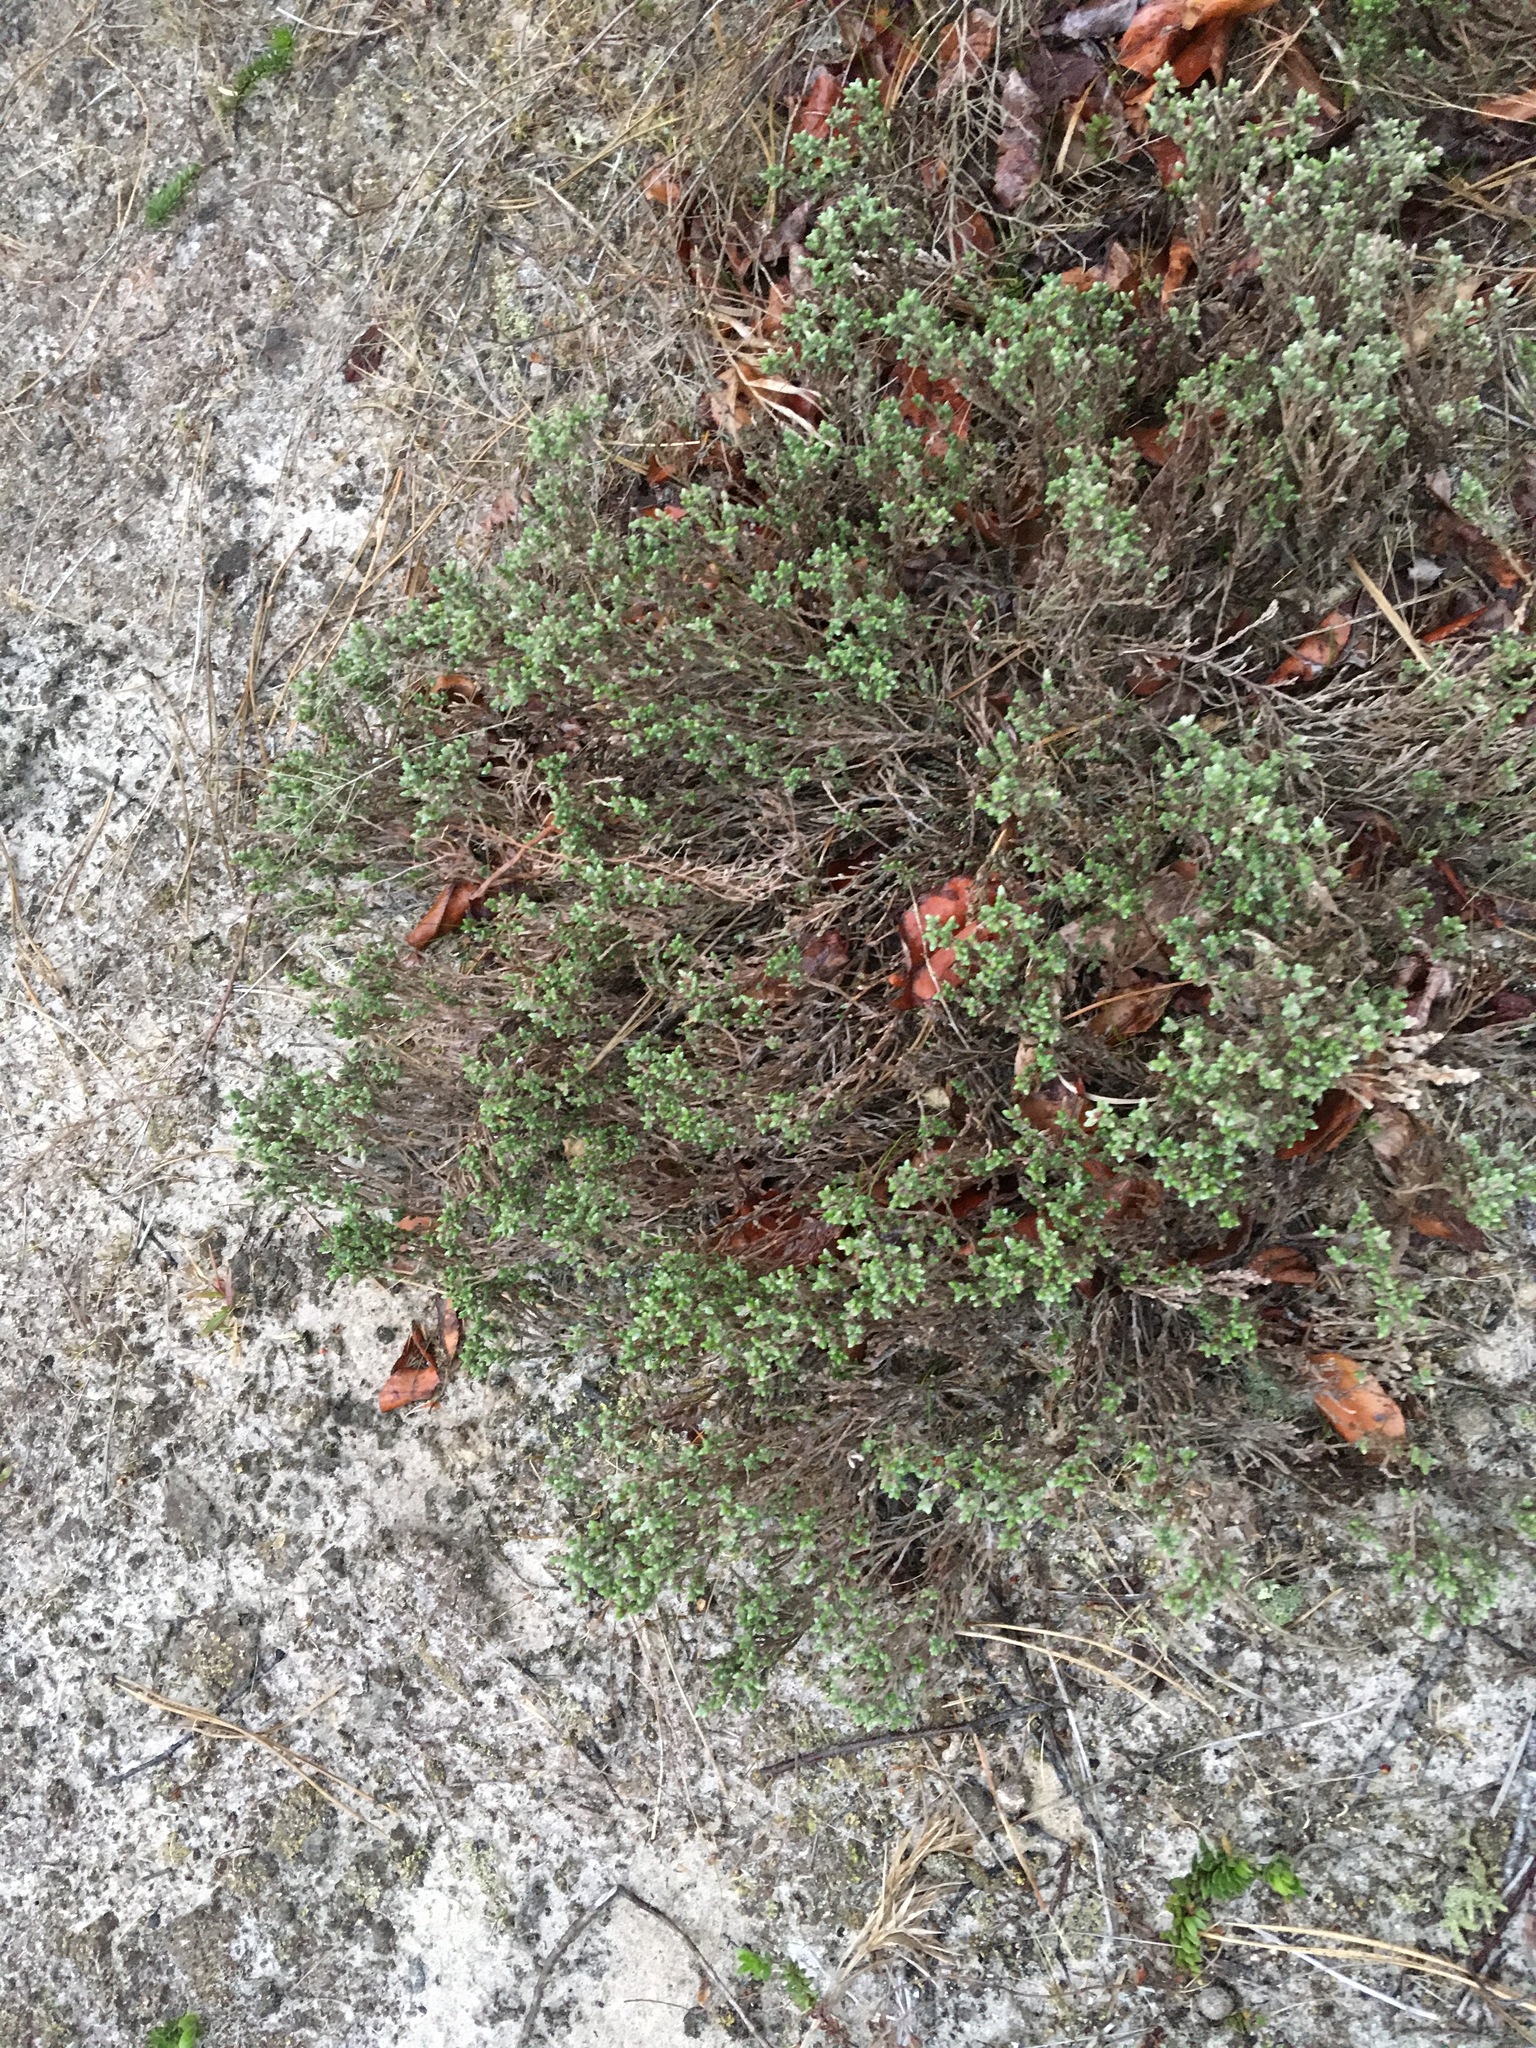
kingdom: Plantae
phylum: Tracheophyta
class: Magnoliopsida
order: Malvales
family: Cistaceae
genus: Hudsonia
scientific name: Hudsonia tomentosa
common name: Beach-heath
